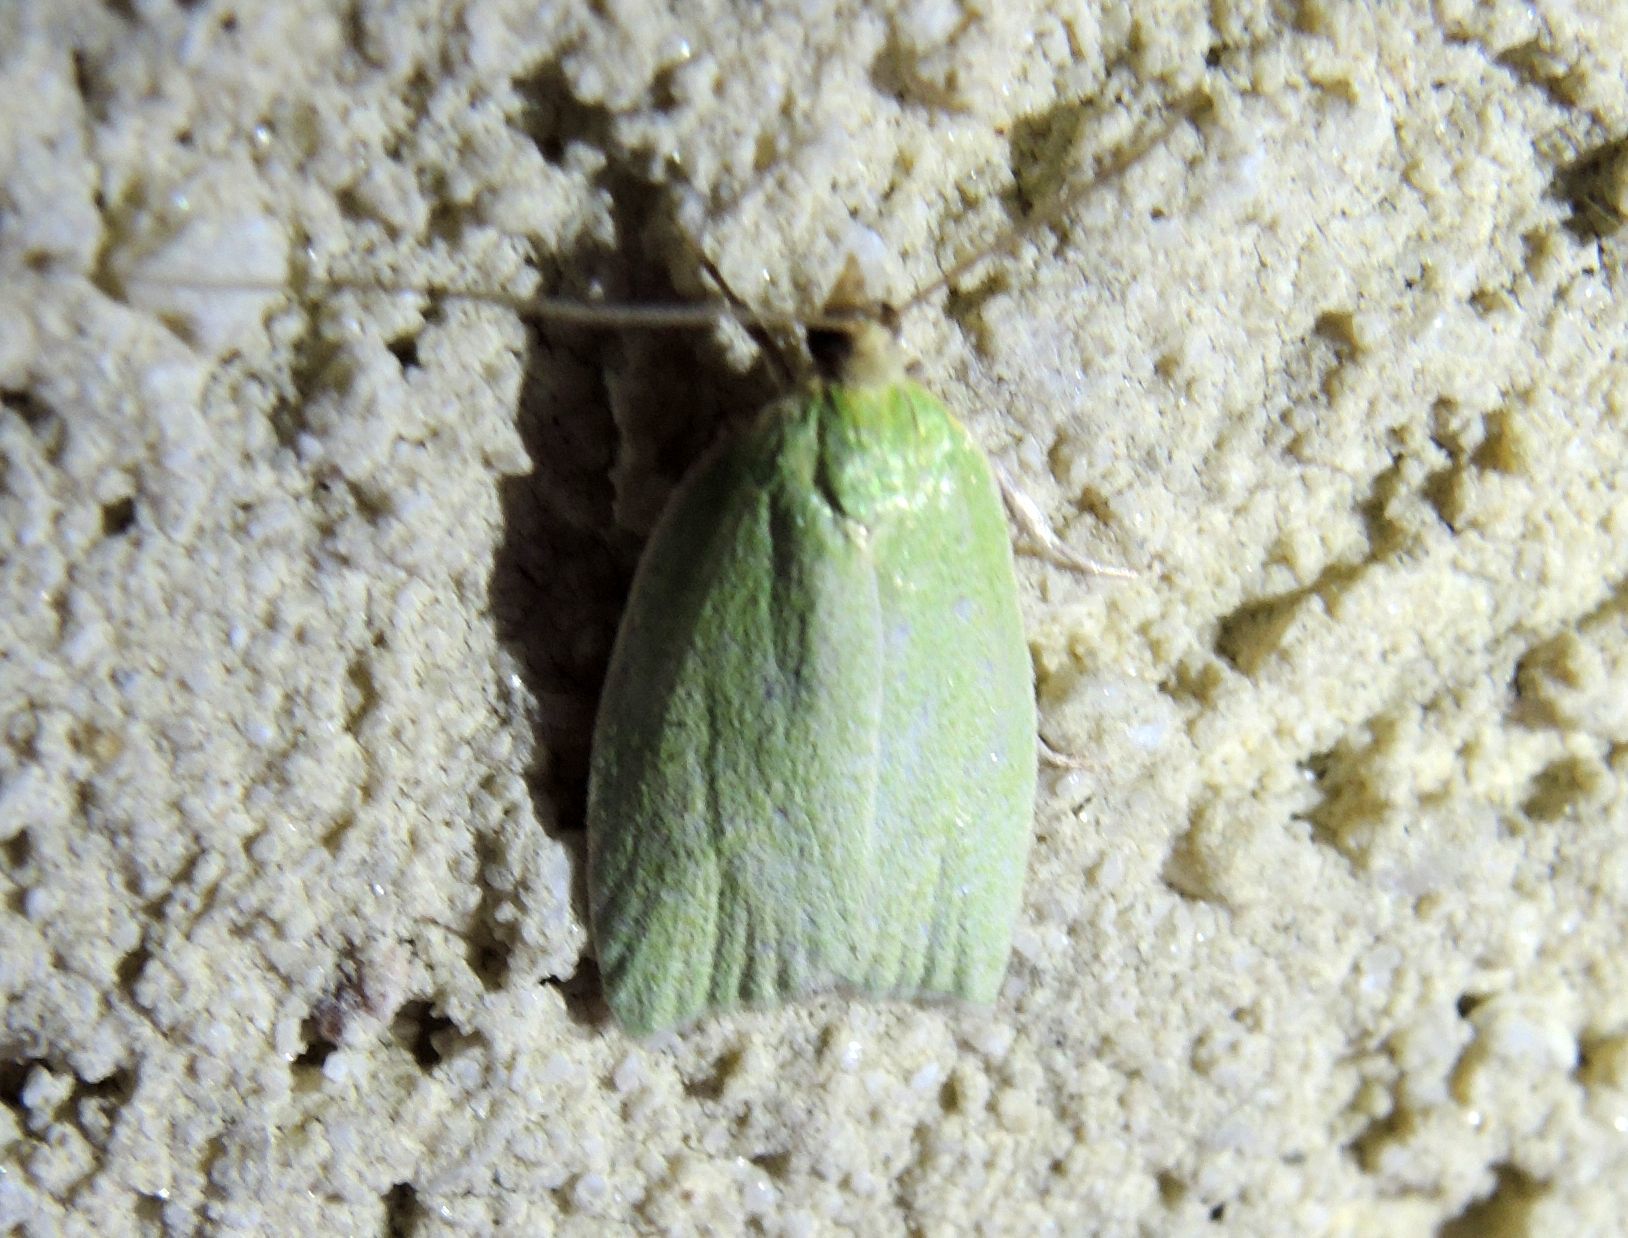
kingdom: Animalia
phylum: Arthropoda
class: Insecta
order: Lepidoptera
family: Tortricidae
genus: Tortrix
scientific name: Tortrix viridana
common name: Green oak tortrix
